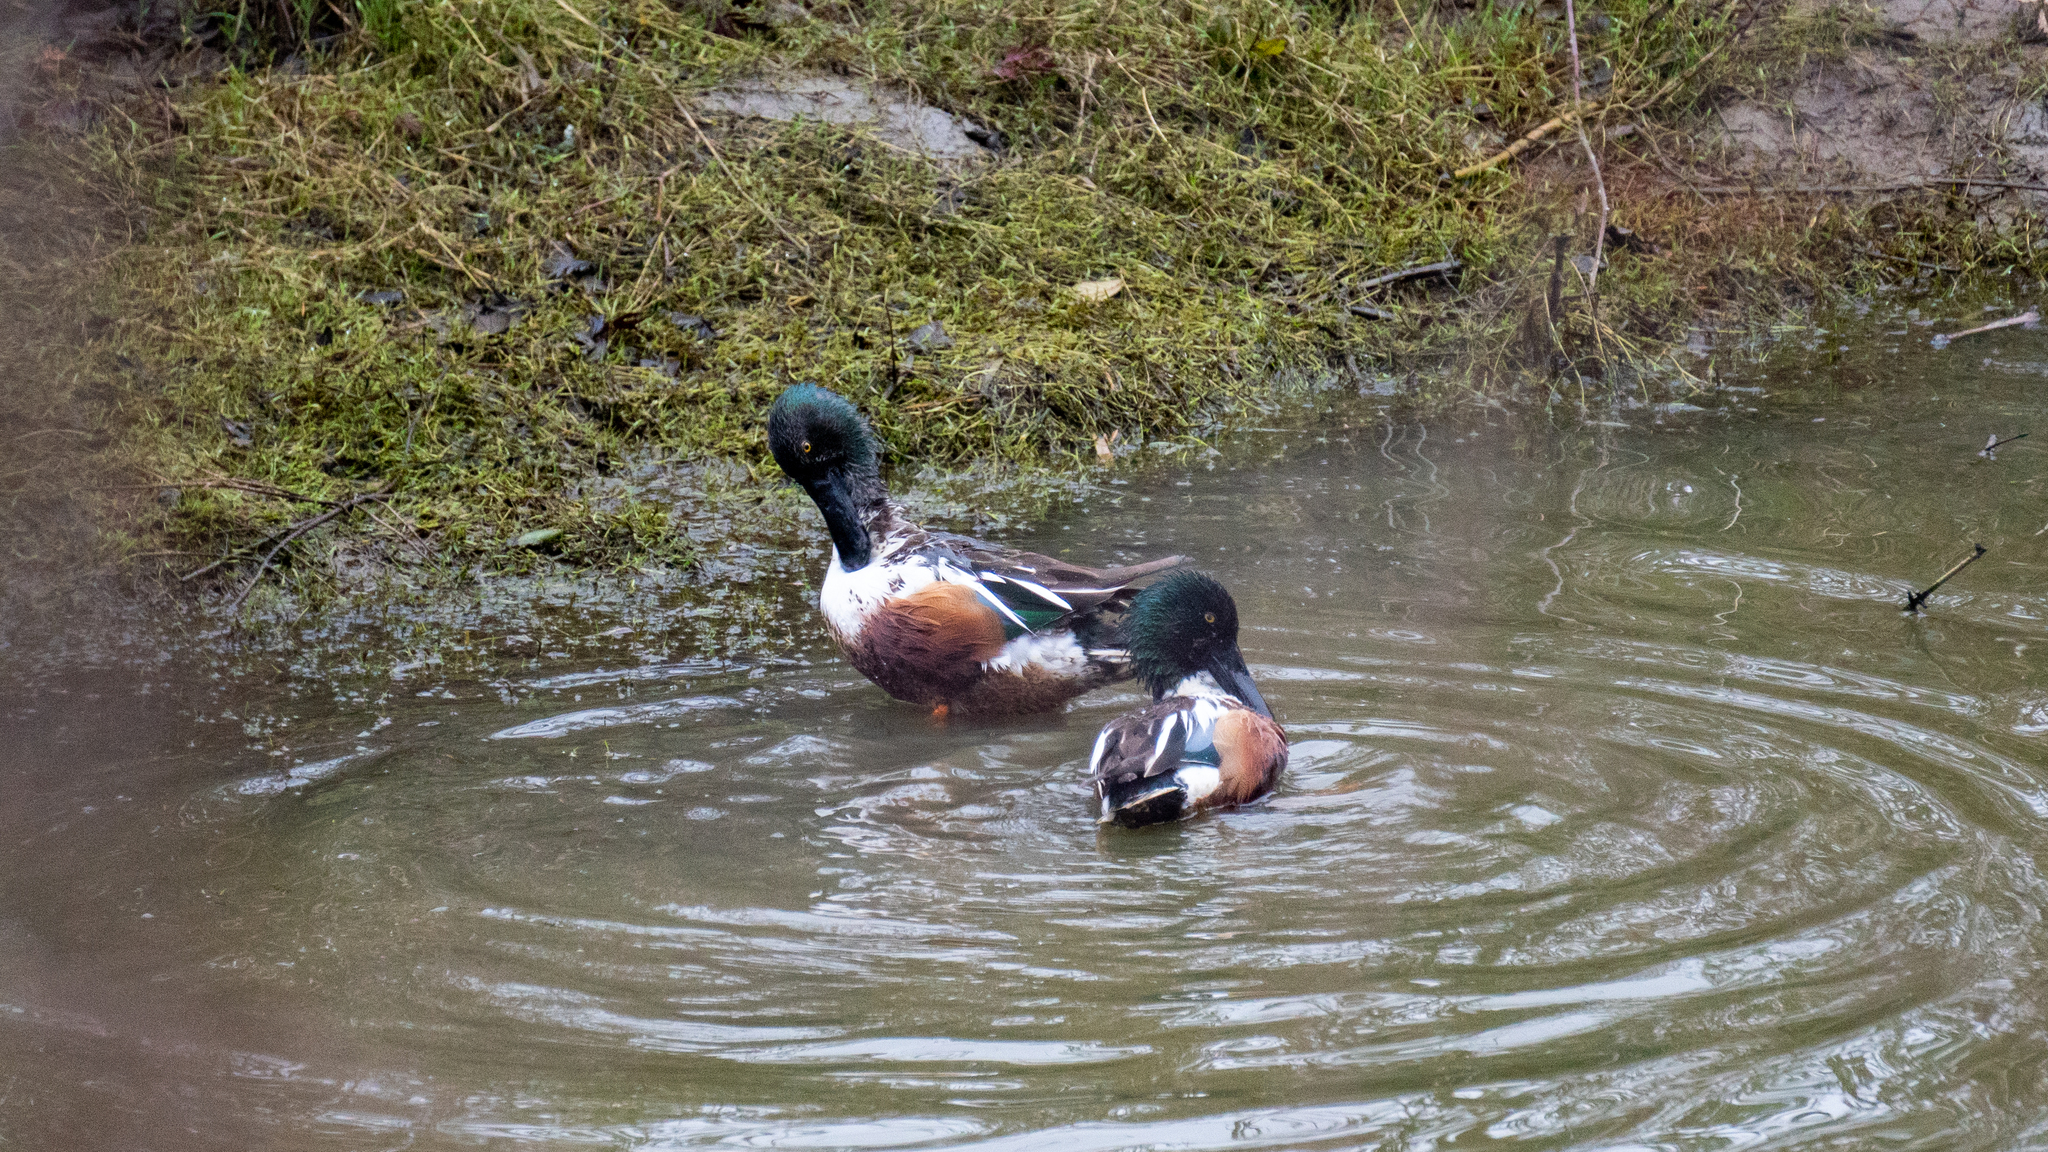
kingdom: Animalia
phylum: Chordata
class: Aves
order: Anseriformes
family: Anatidae
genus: Spatula
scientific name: Spatula clypeata
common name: Northern shoveler
